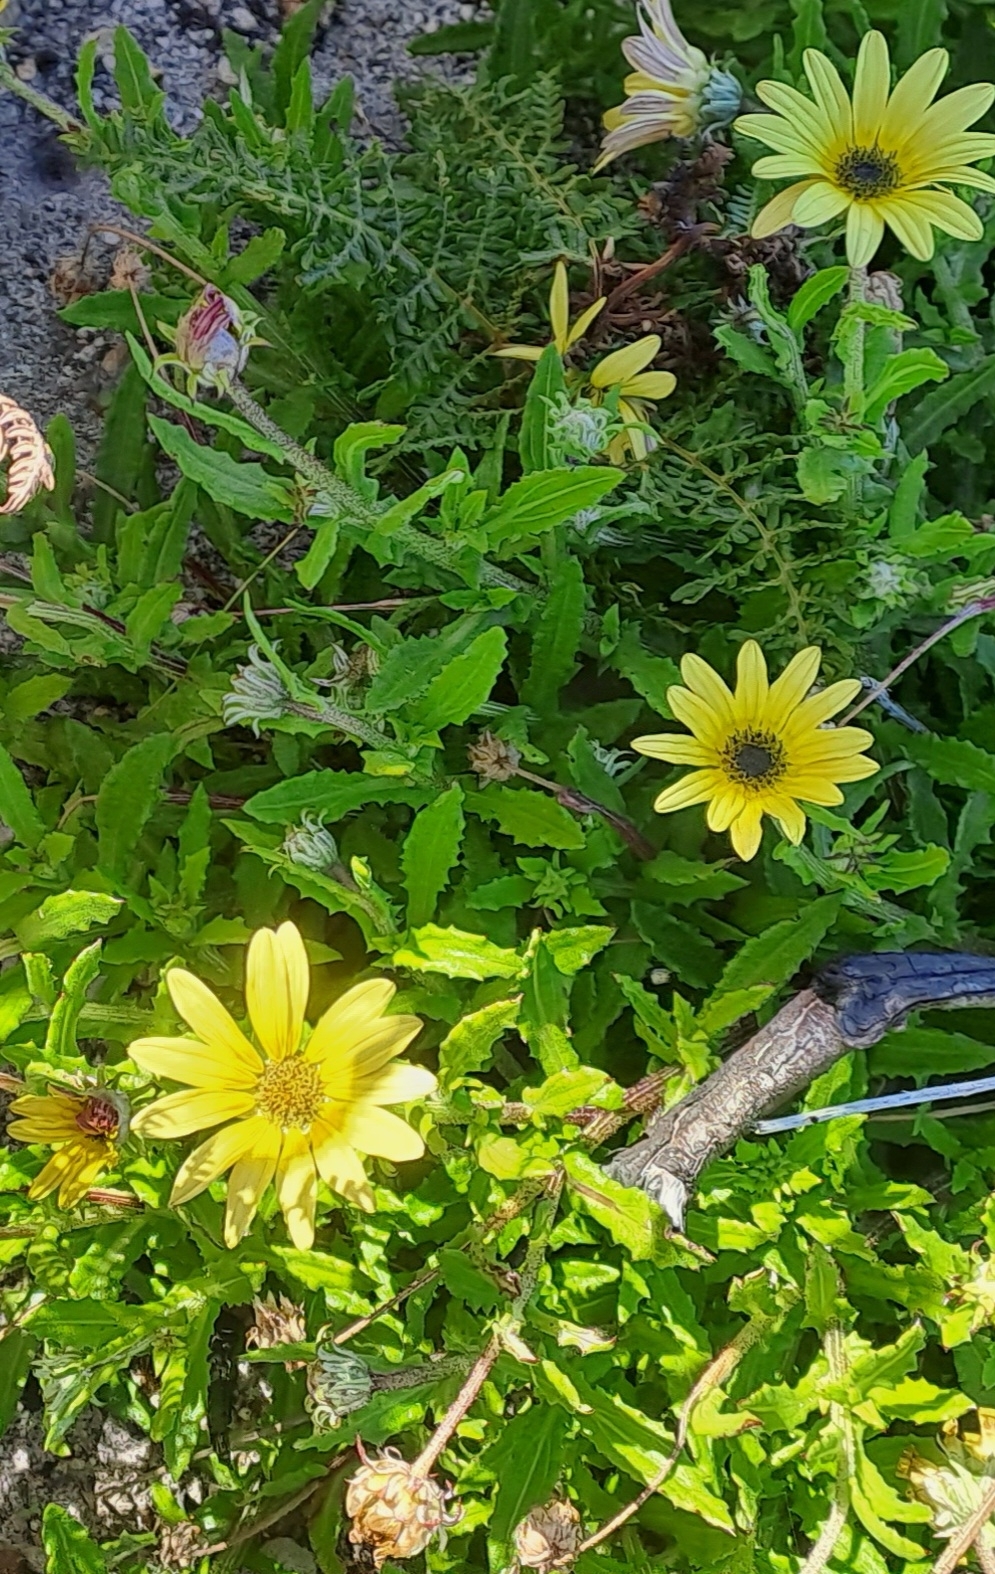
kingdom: Plantae
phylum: Tracheophyta
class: Magnoliopsida
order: Asterales
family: Asteraceae
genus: Arctotis
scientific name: Arctotis scabra
